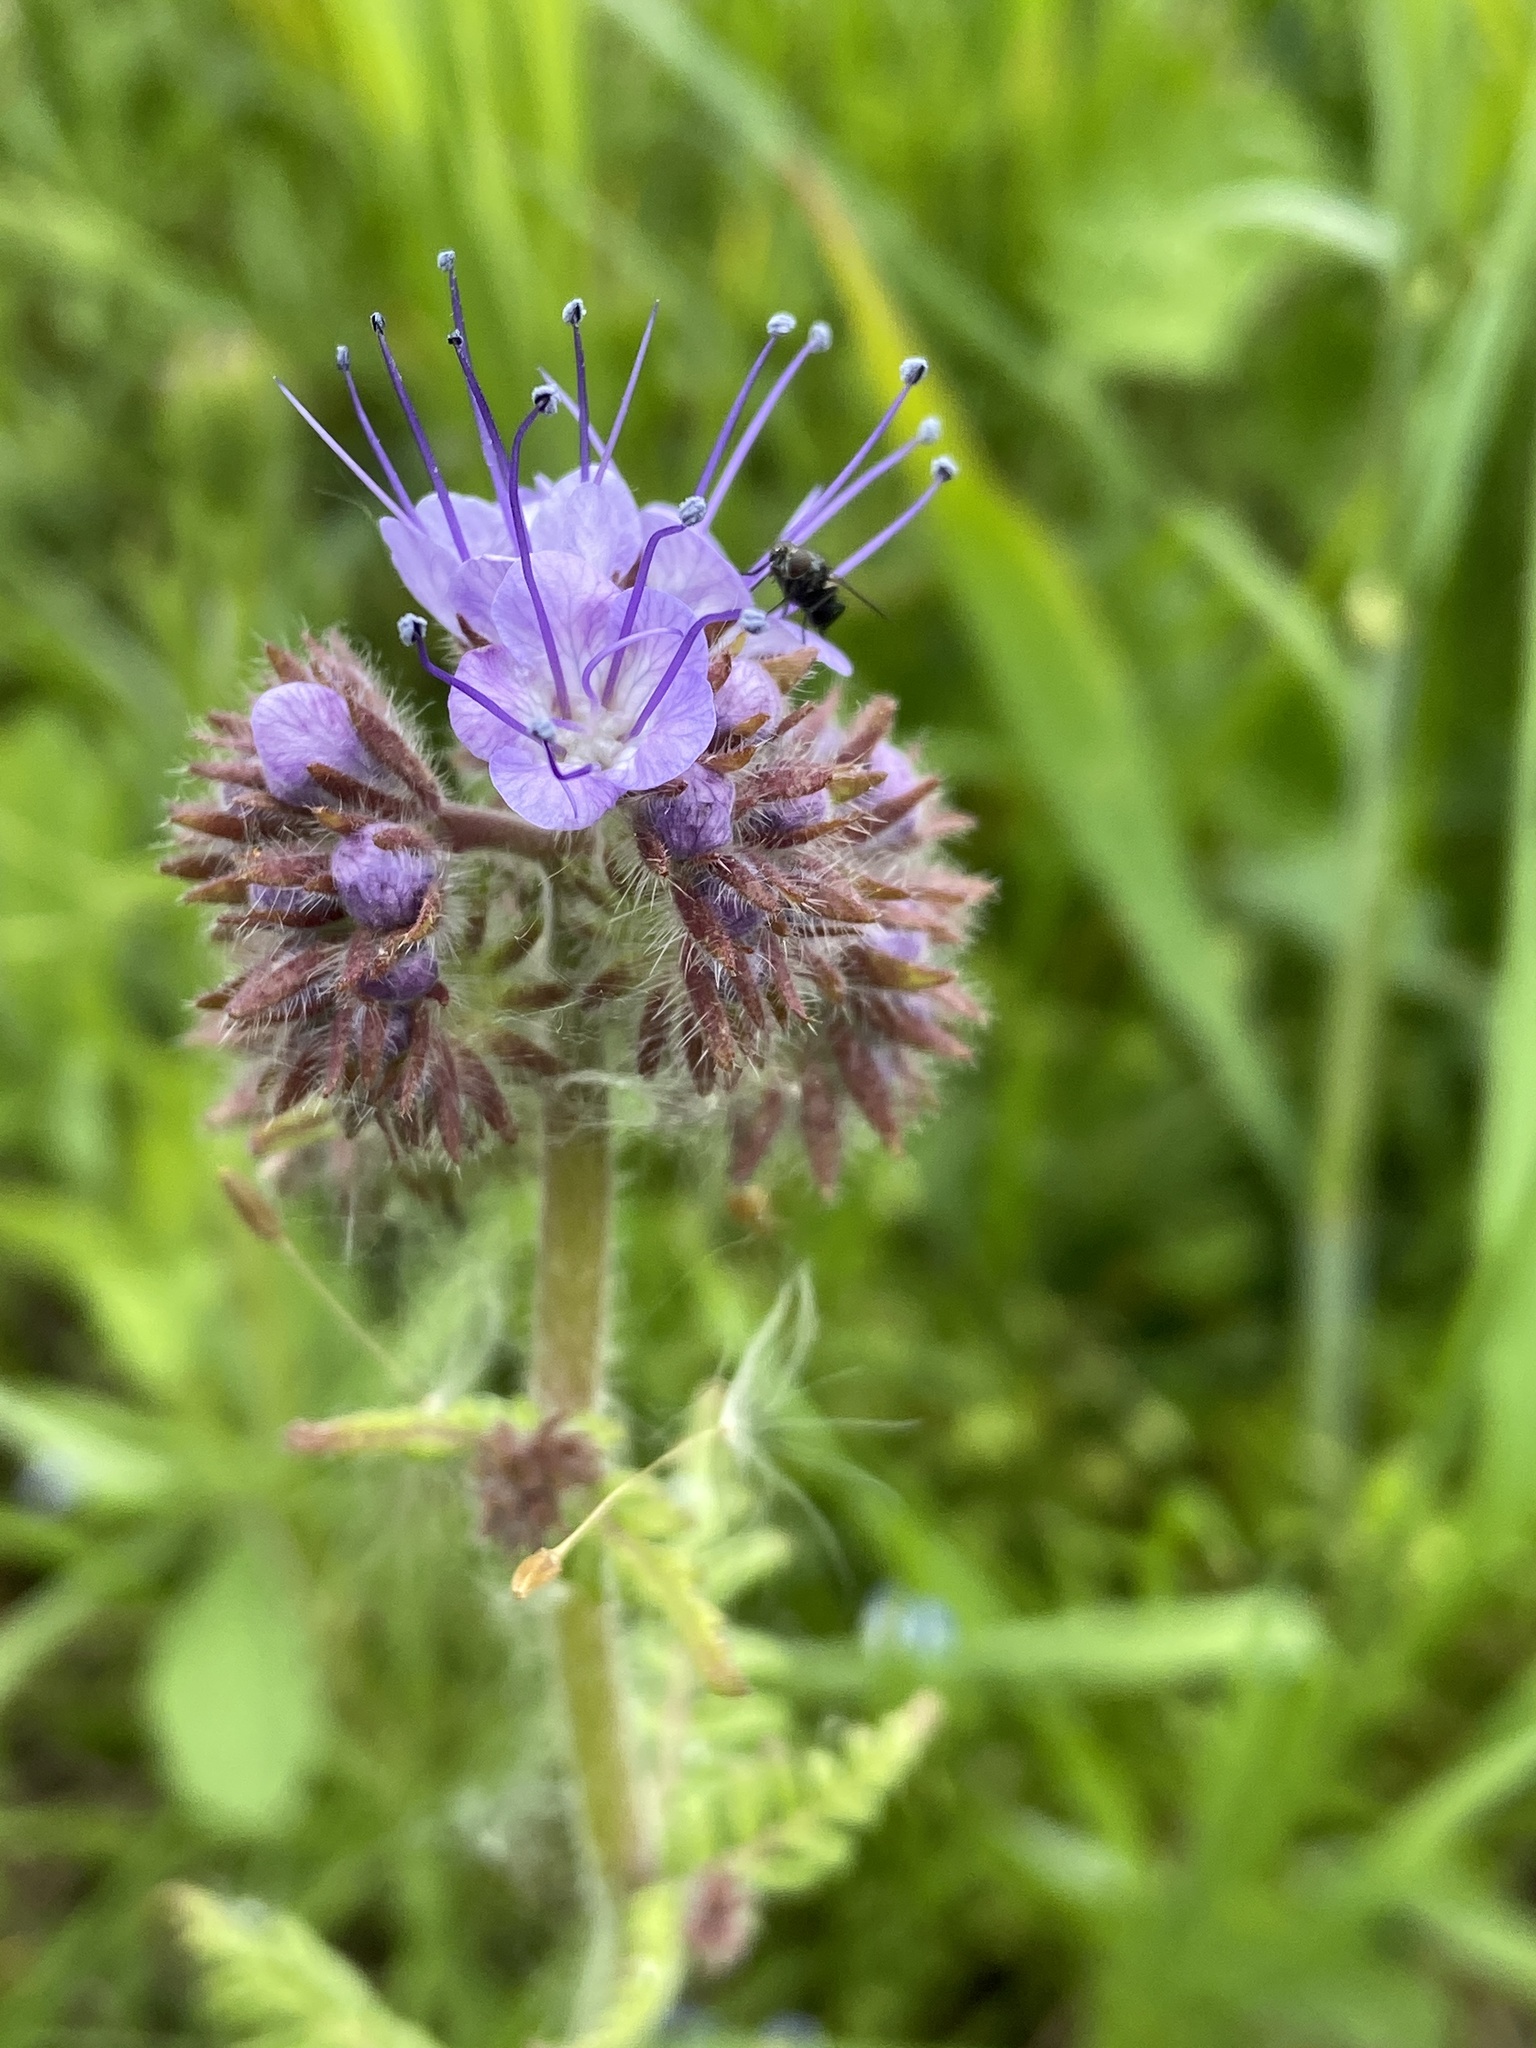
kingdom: Plantae
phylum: Tracheophyta
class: Magnoliopsida
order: Boraginales
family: Hydrophyllaceae
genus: Phacelia
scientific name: Phacelia tanacetifolia
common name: Phacelia
